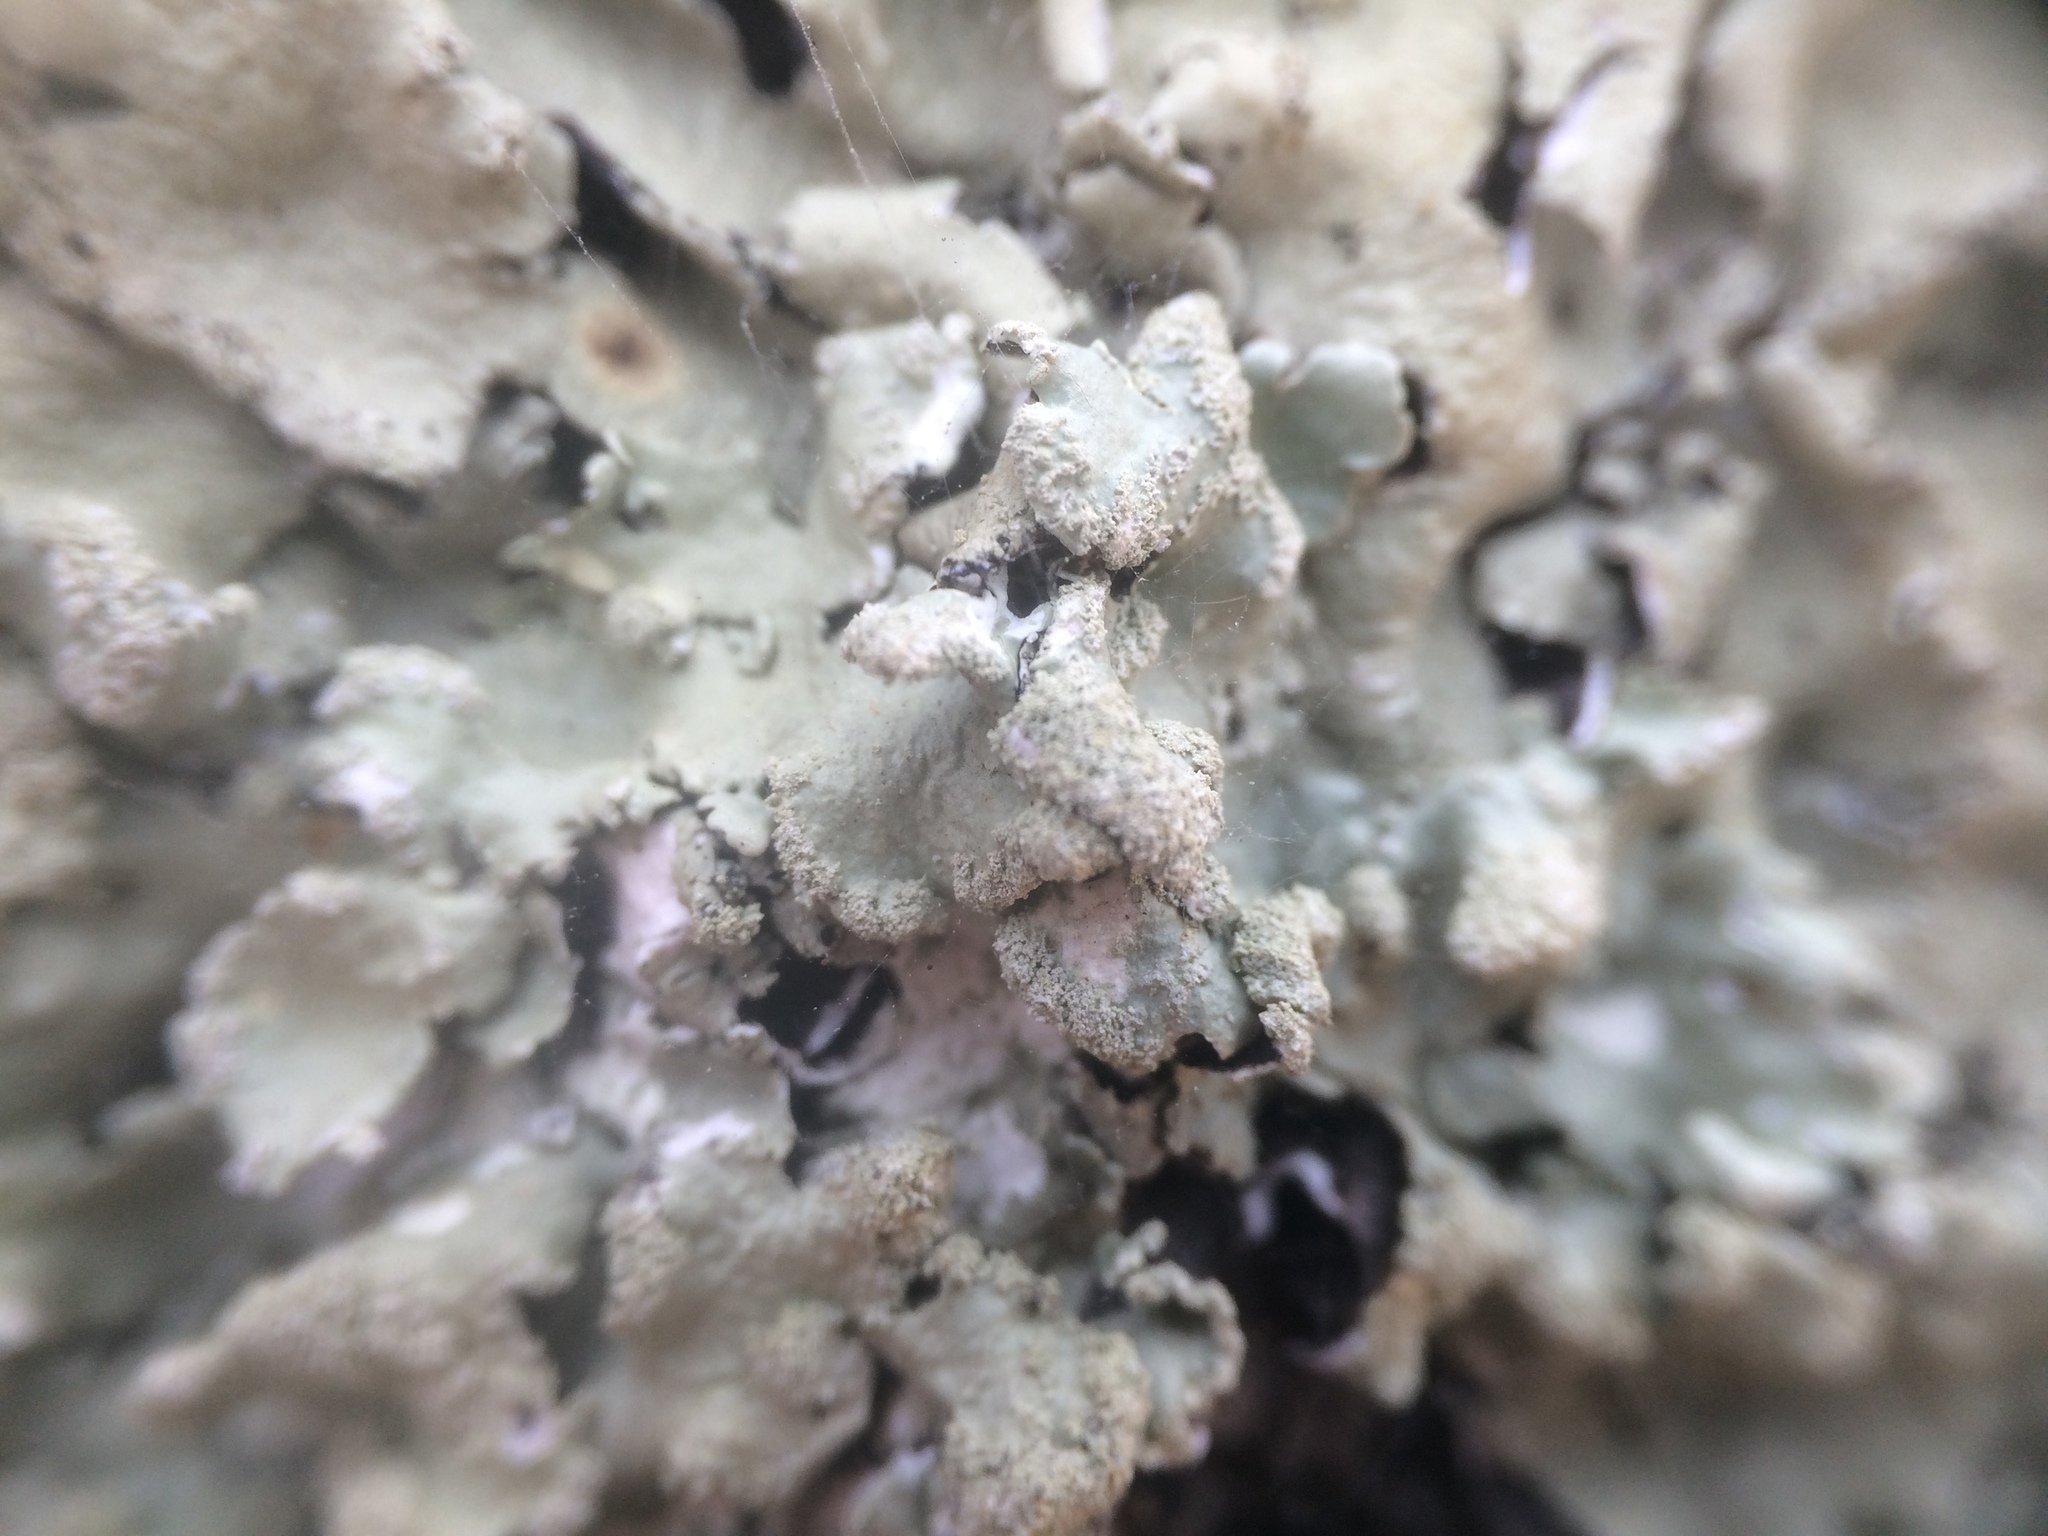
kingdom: Fungi
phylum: Ascomycota
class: Lecanoromycetes
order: Lecanorales
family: Parmeliaceae
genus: Flavoparmelia
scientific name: Flavoparmelia caperata
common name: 40-mile per hour lichen
